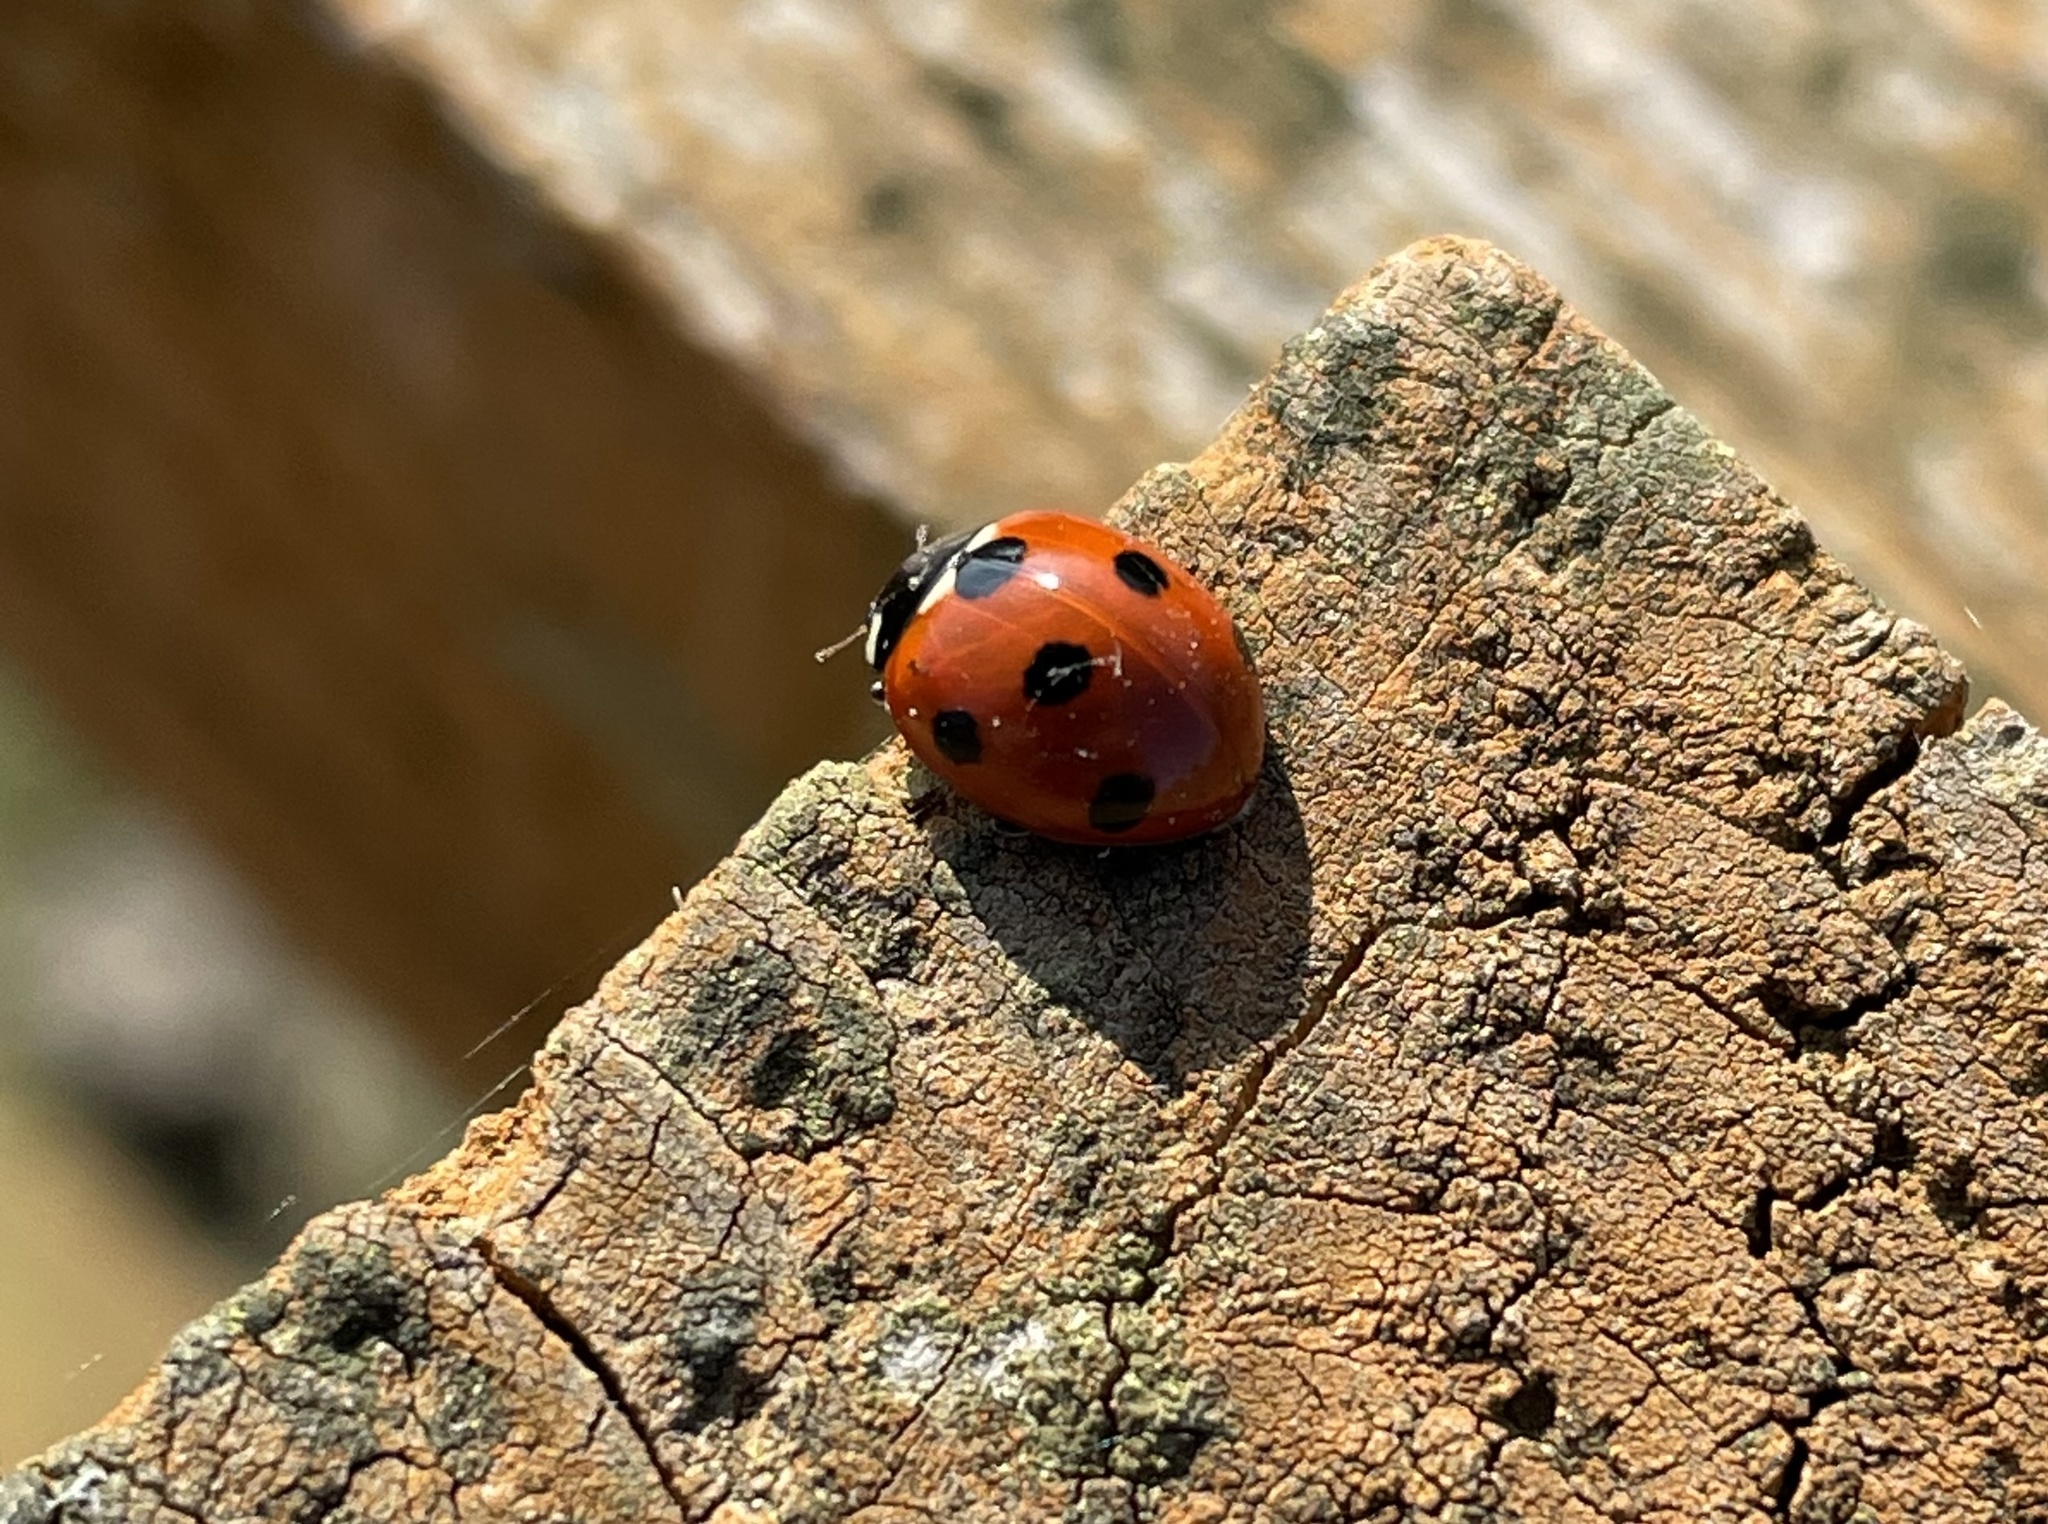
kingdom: Animalia
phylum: Arthropoda
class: Insecta
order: Coleoptera
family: Coccinellidae
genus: Coccinella
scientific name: Coccinella septempunctata
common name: Sevenspotted lady beetle
